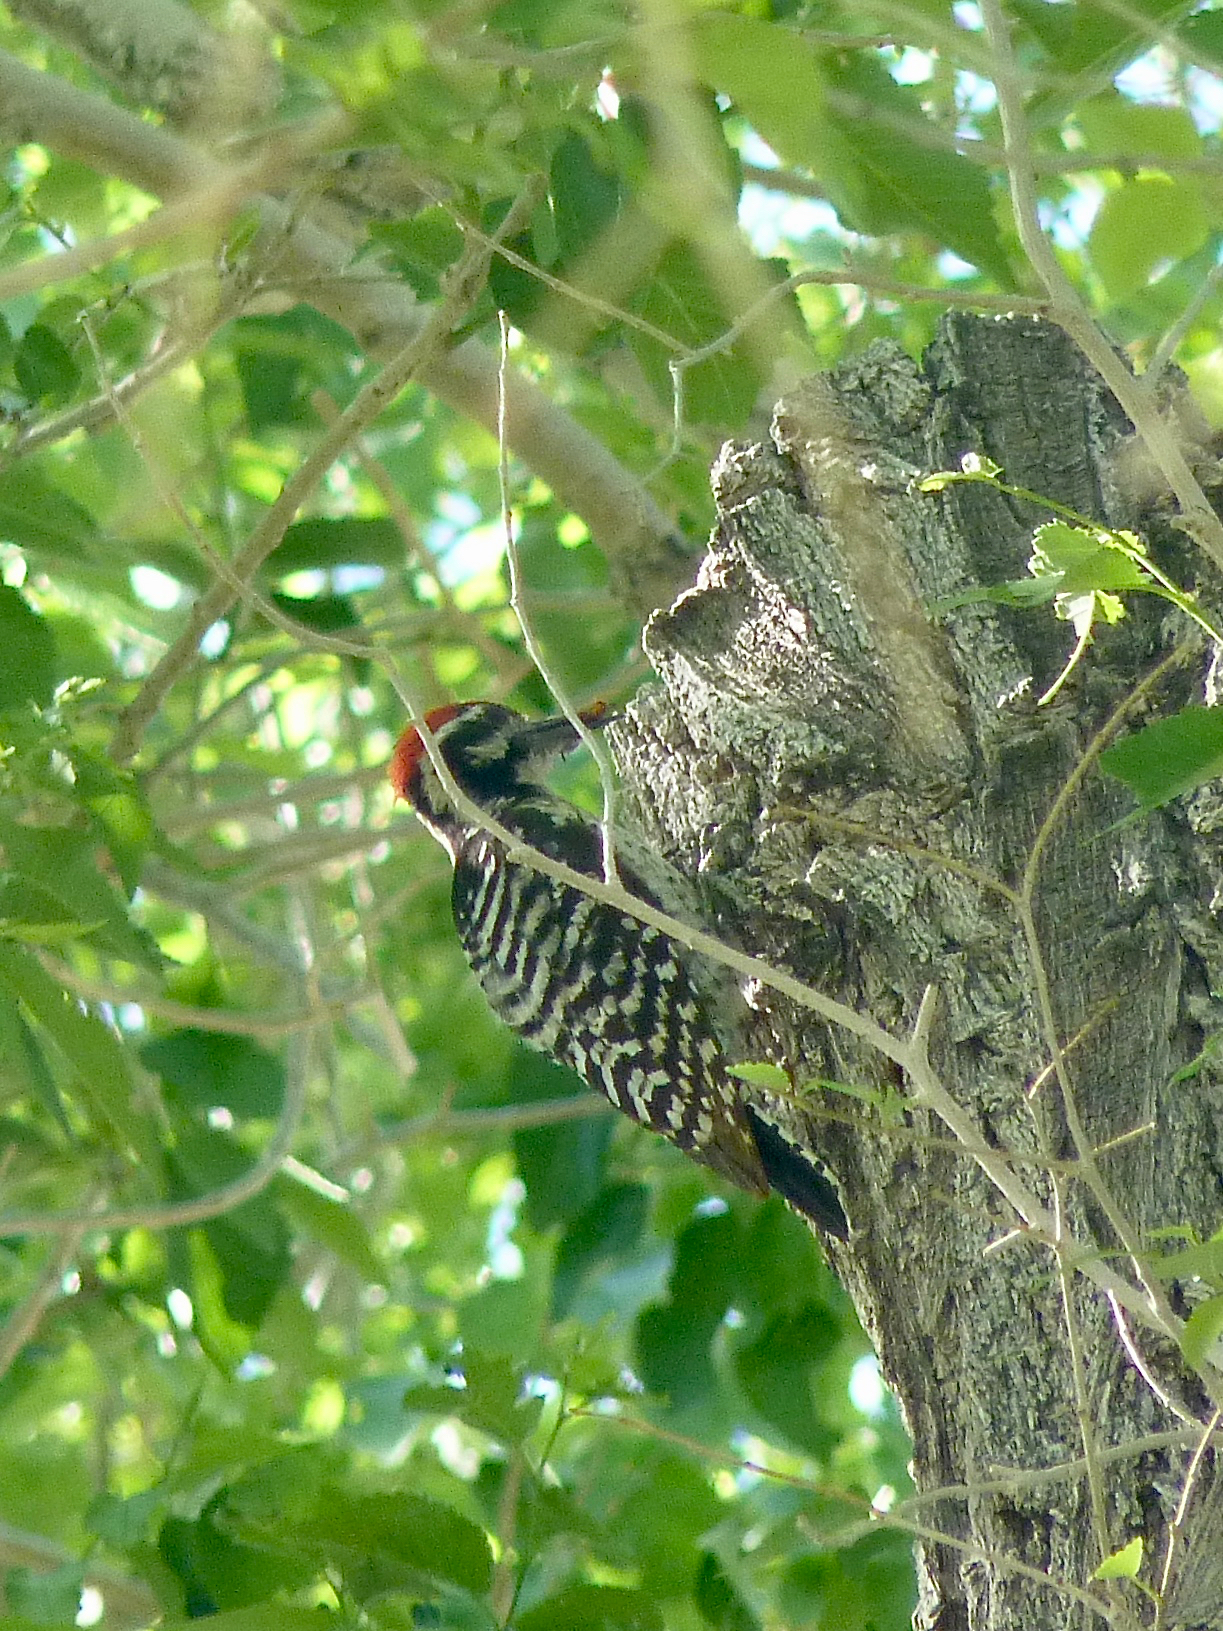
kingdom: Animalia
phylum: Chordata
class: Aves
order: Piciformes
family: Picidae
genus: Dryobates
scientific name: Dryobates scalaris
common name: Ladder-backed woodpecker
